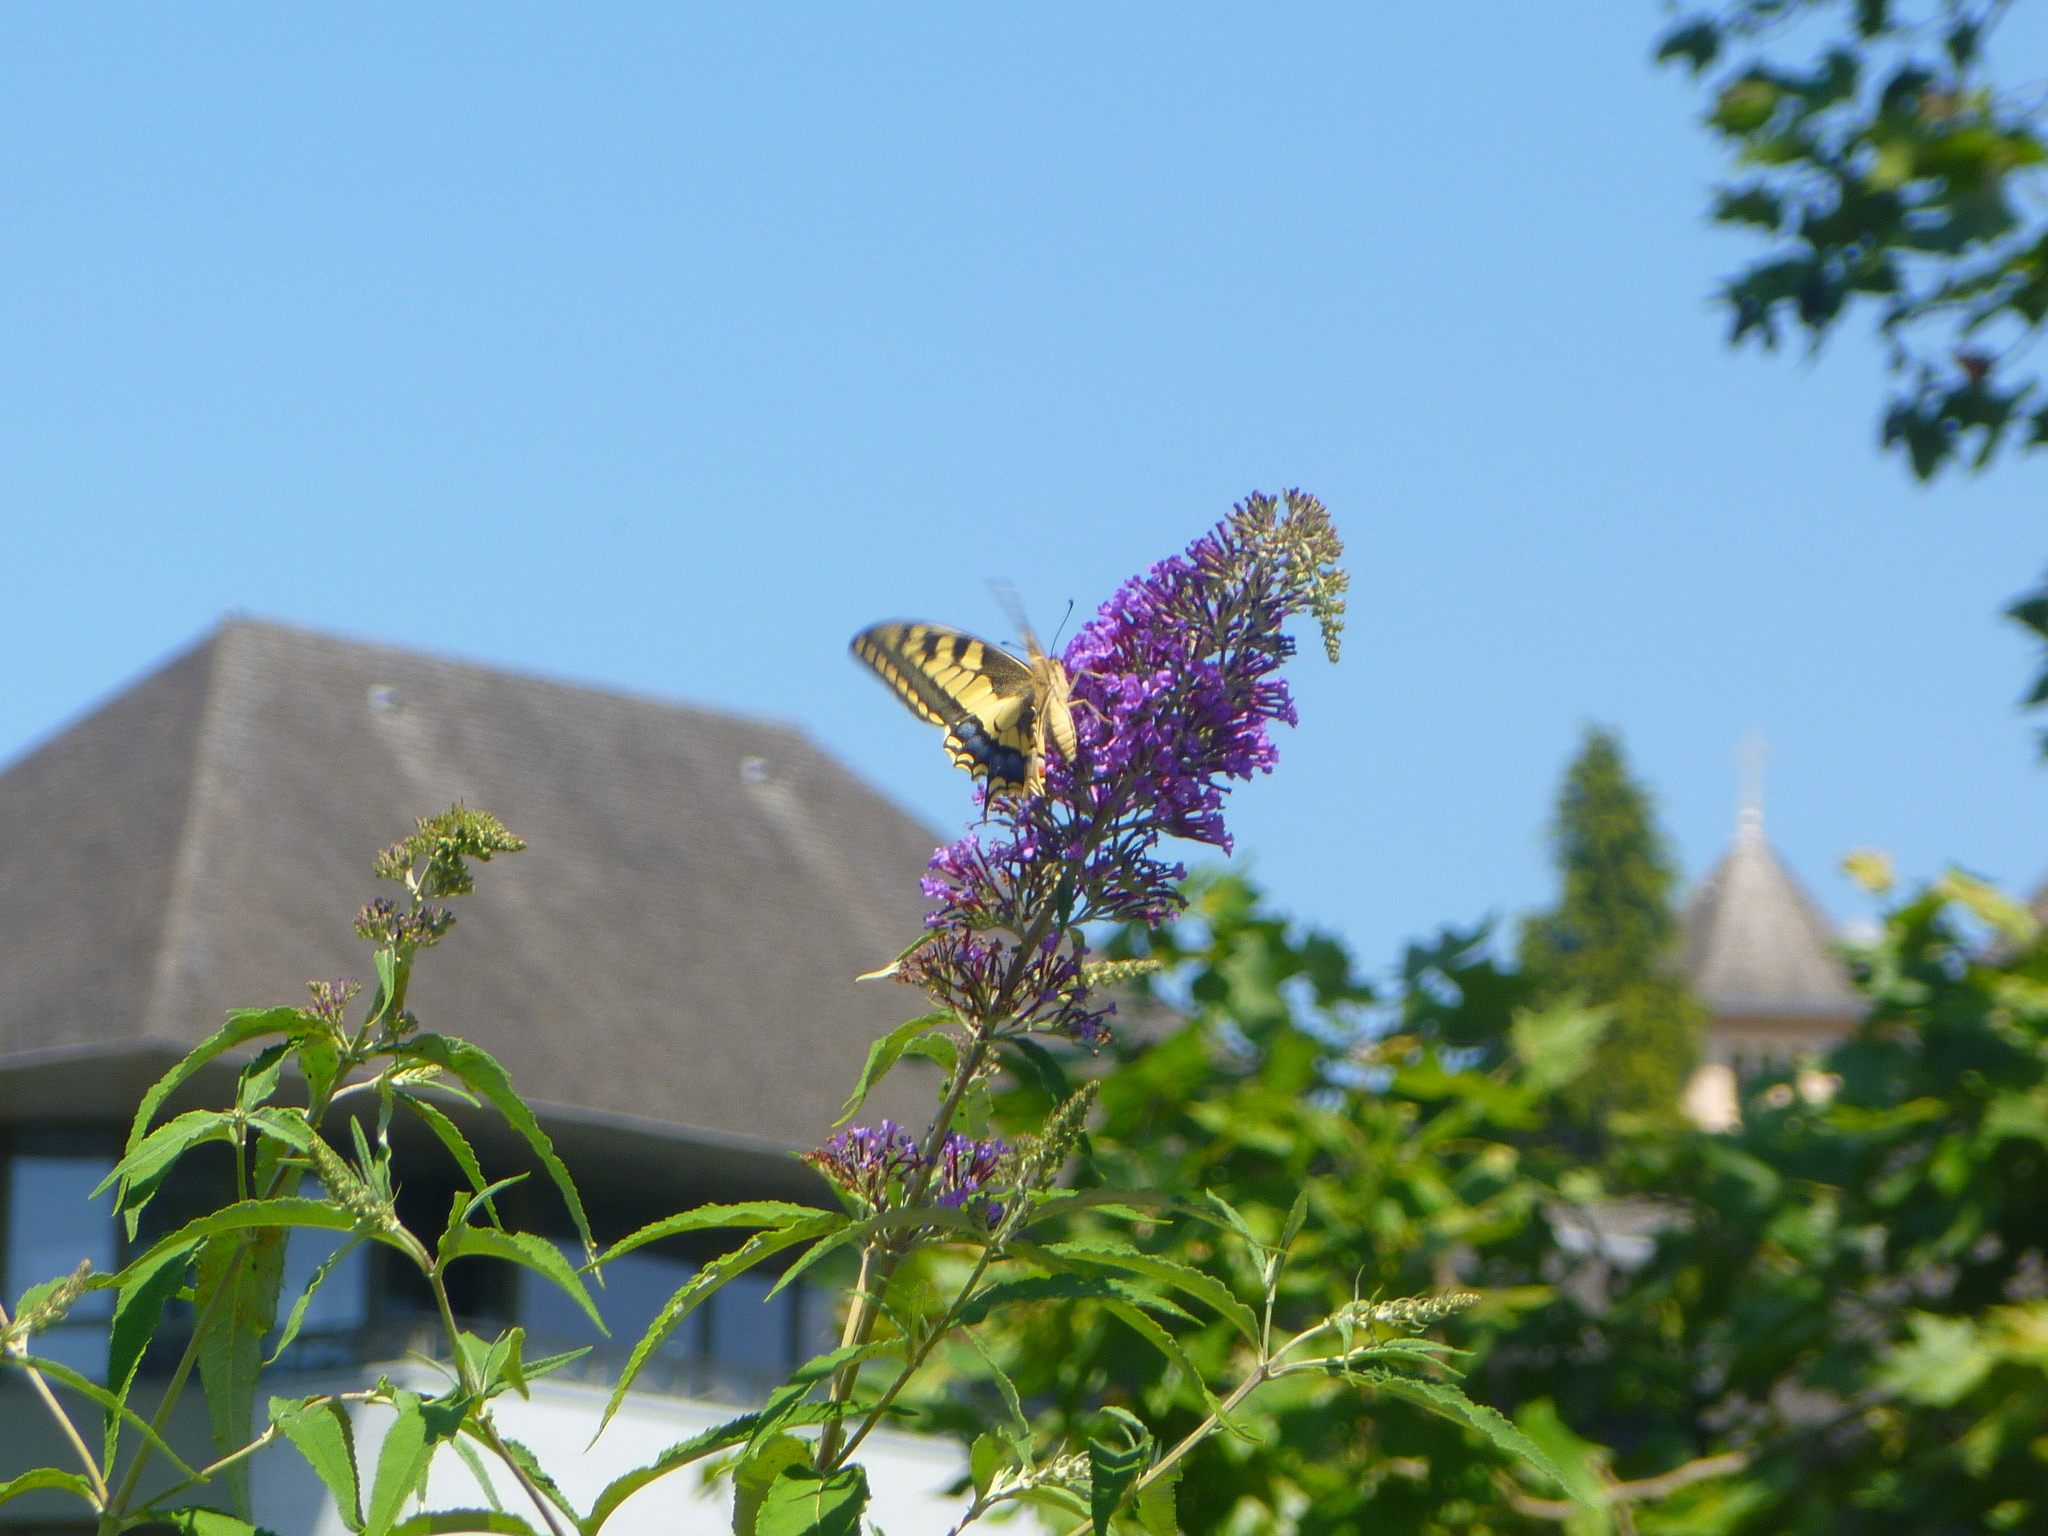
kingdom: Animalia
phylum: Arthropoda
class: Insecta
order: Lepidoptera
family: Papilionidae
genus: Papilio
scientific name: Papilio machaon
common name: Swallowtail
